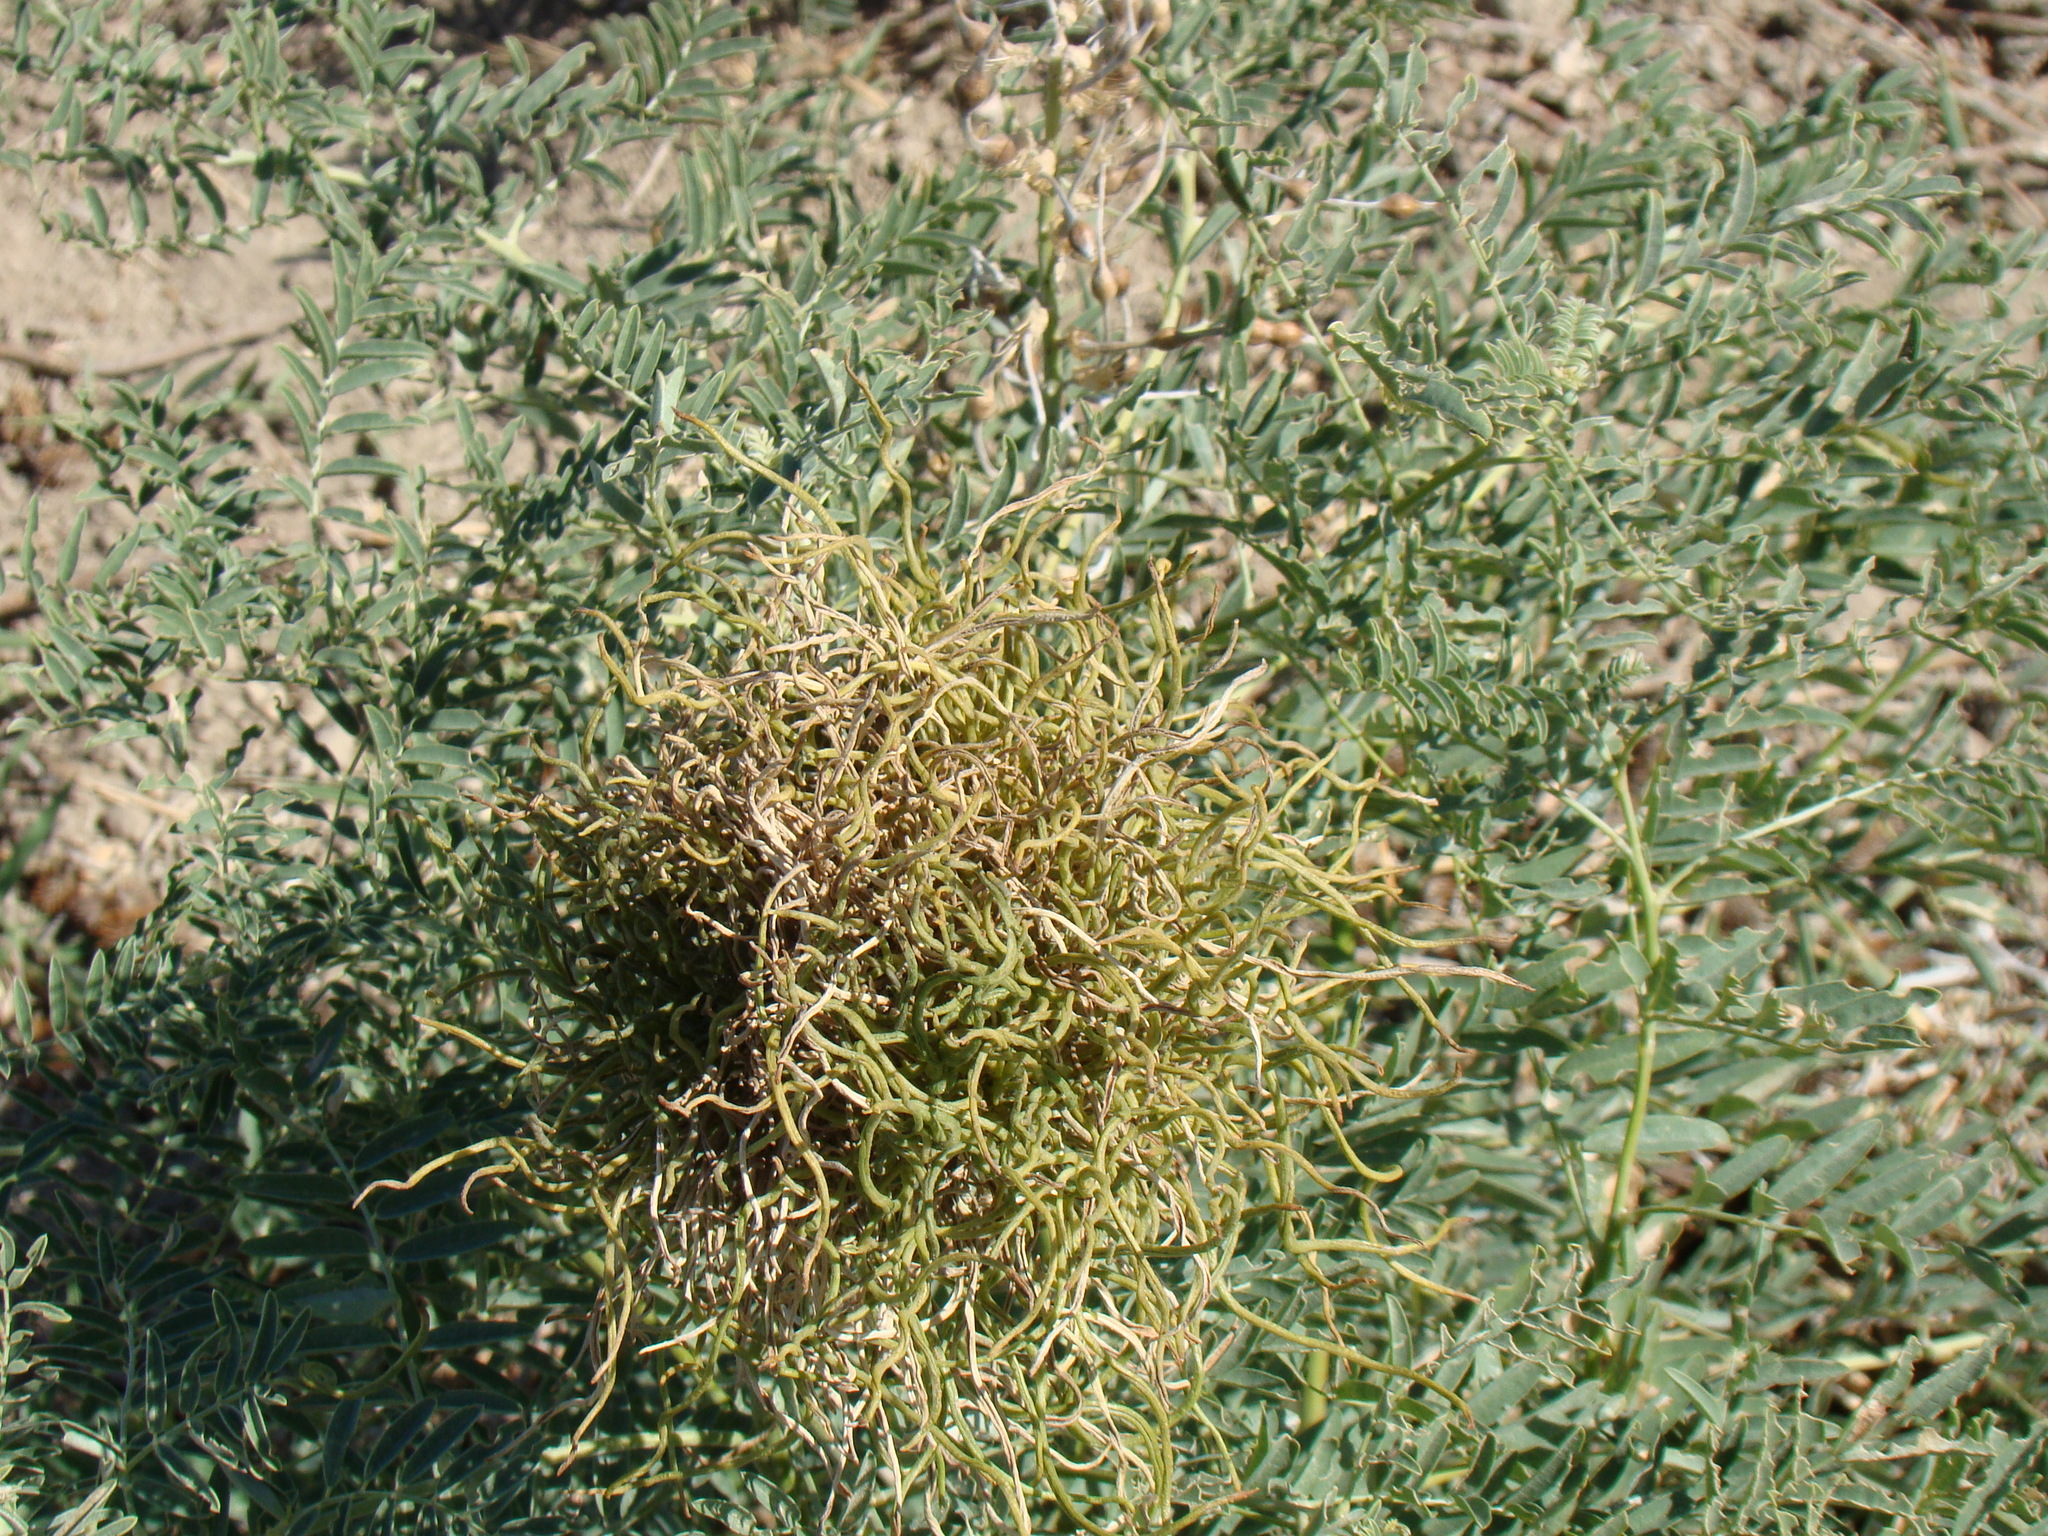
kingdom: Plantae
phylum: Tracheophyta
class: Magnoliopsida
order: Fabales
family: Fabaceae
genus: Sophora
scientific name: Sophora alopecuroides
